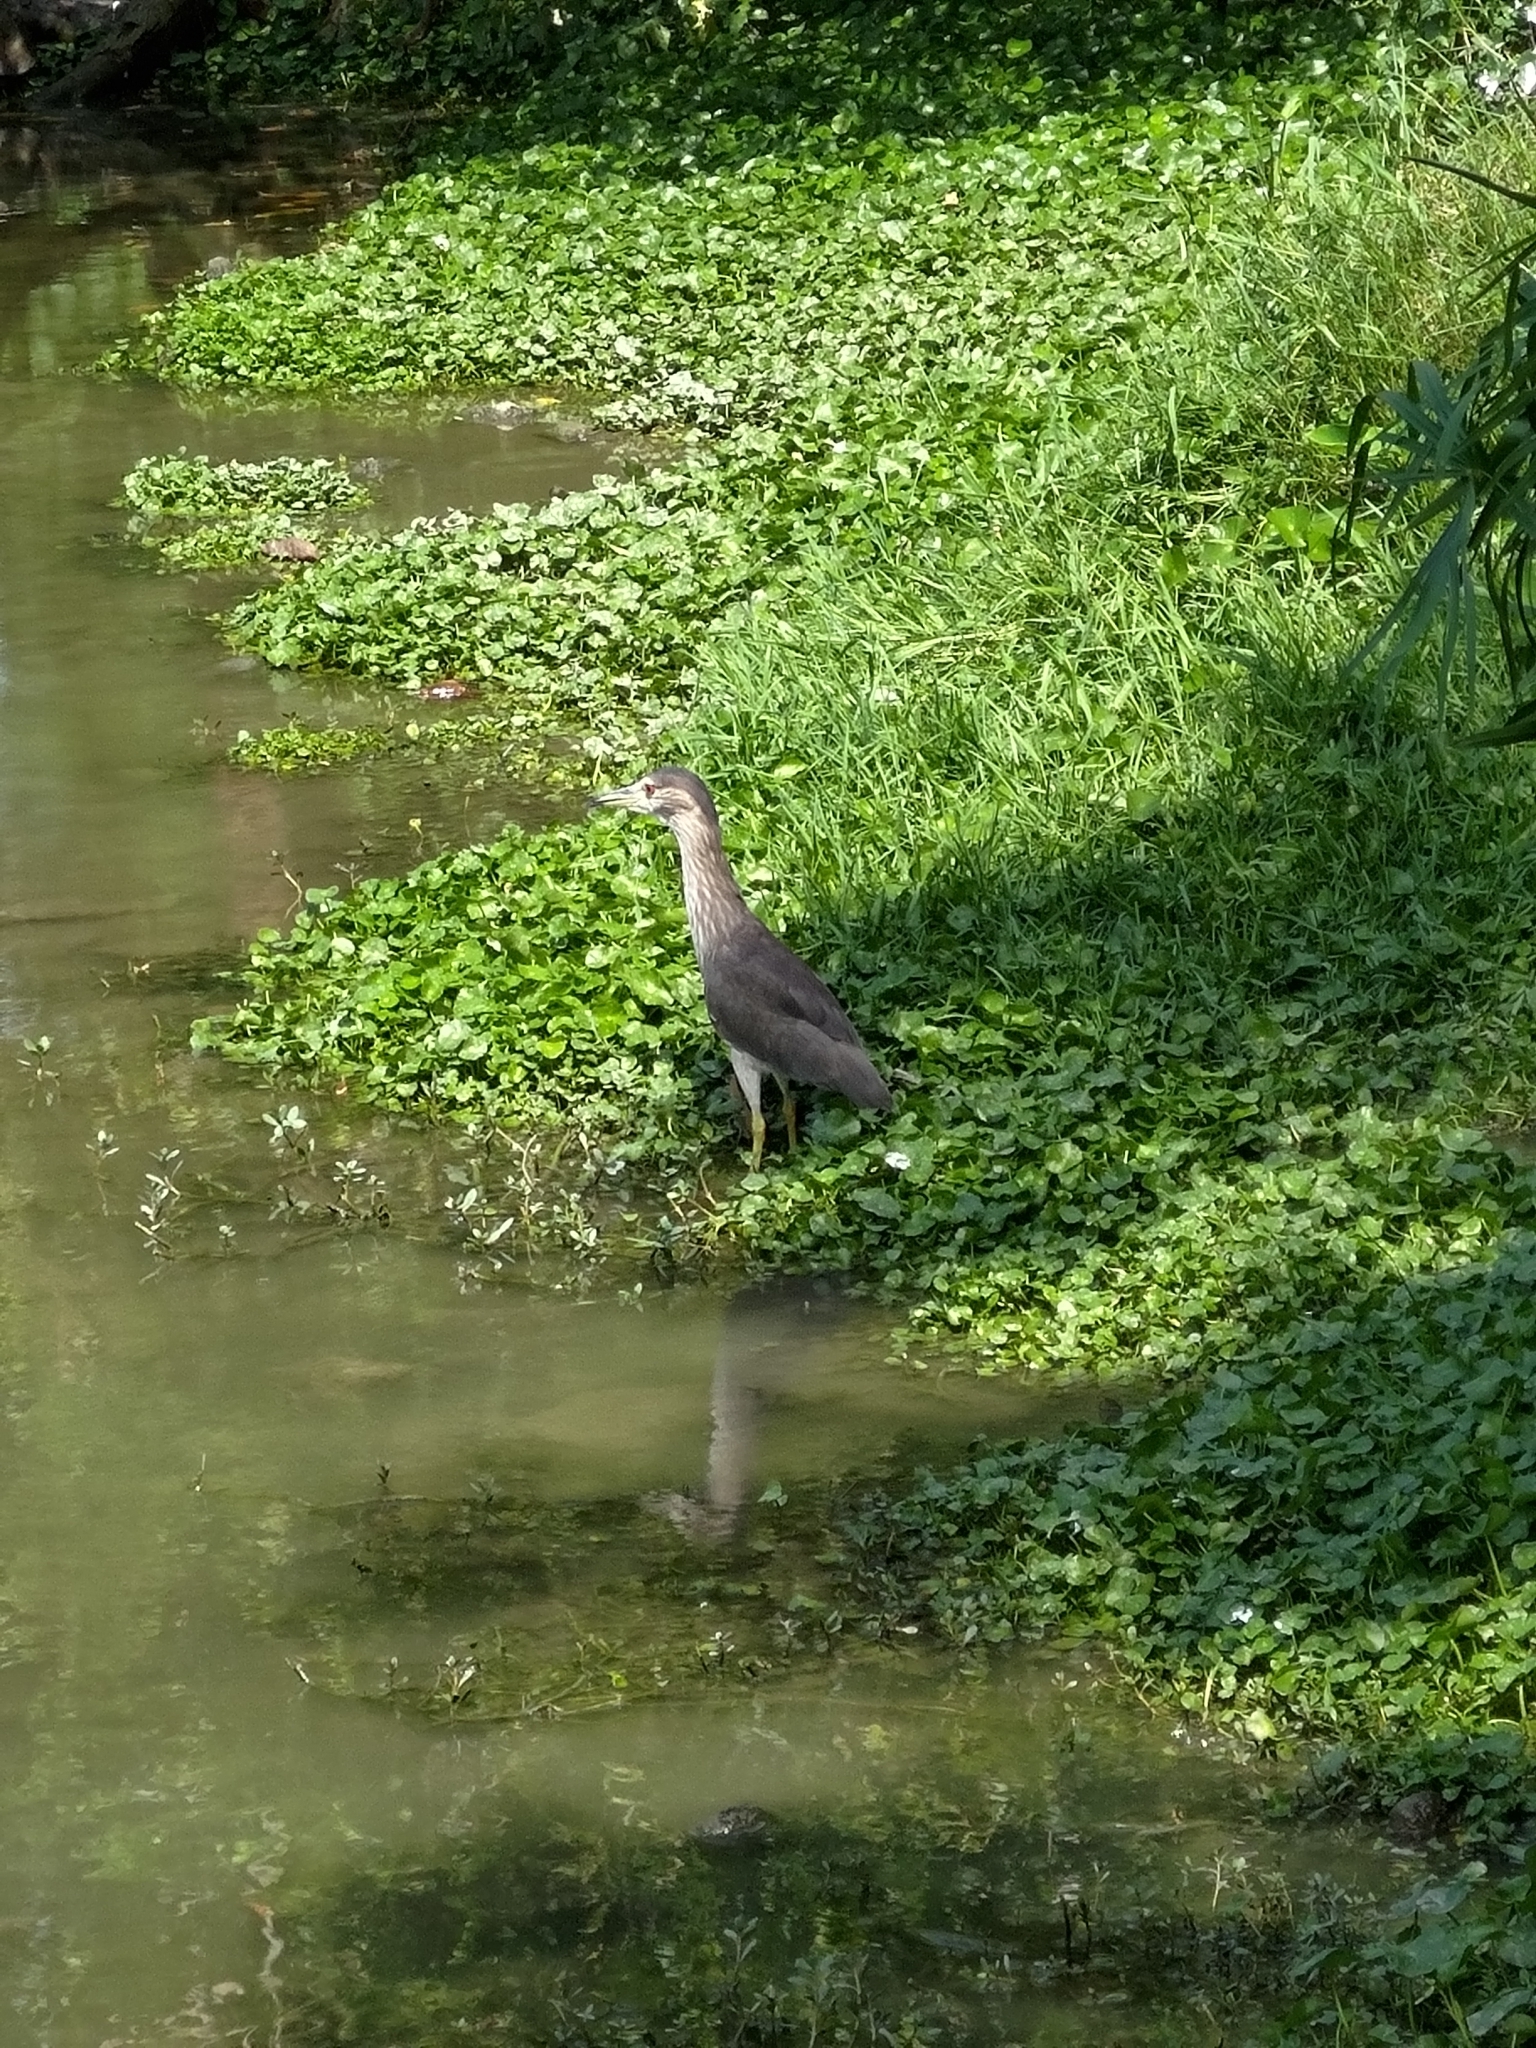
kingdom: Animalia
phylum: Chordata
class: Aves
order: Pelecaniformes
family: Ardeidae
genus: Nycticorax
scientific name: Nycticorax nycticorax
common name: Black-crowned night heron
